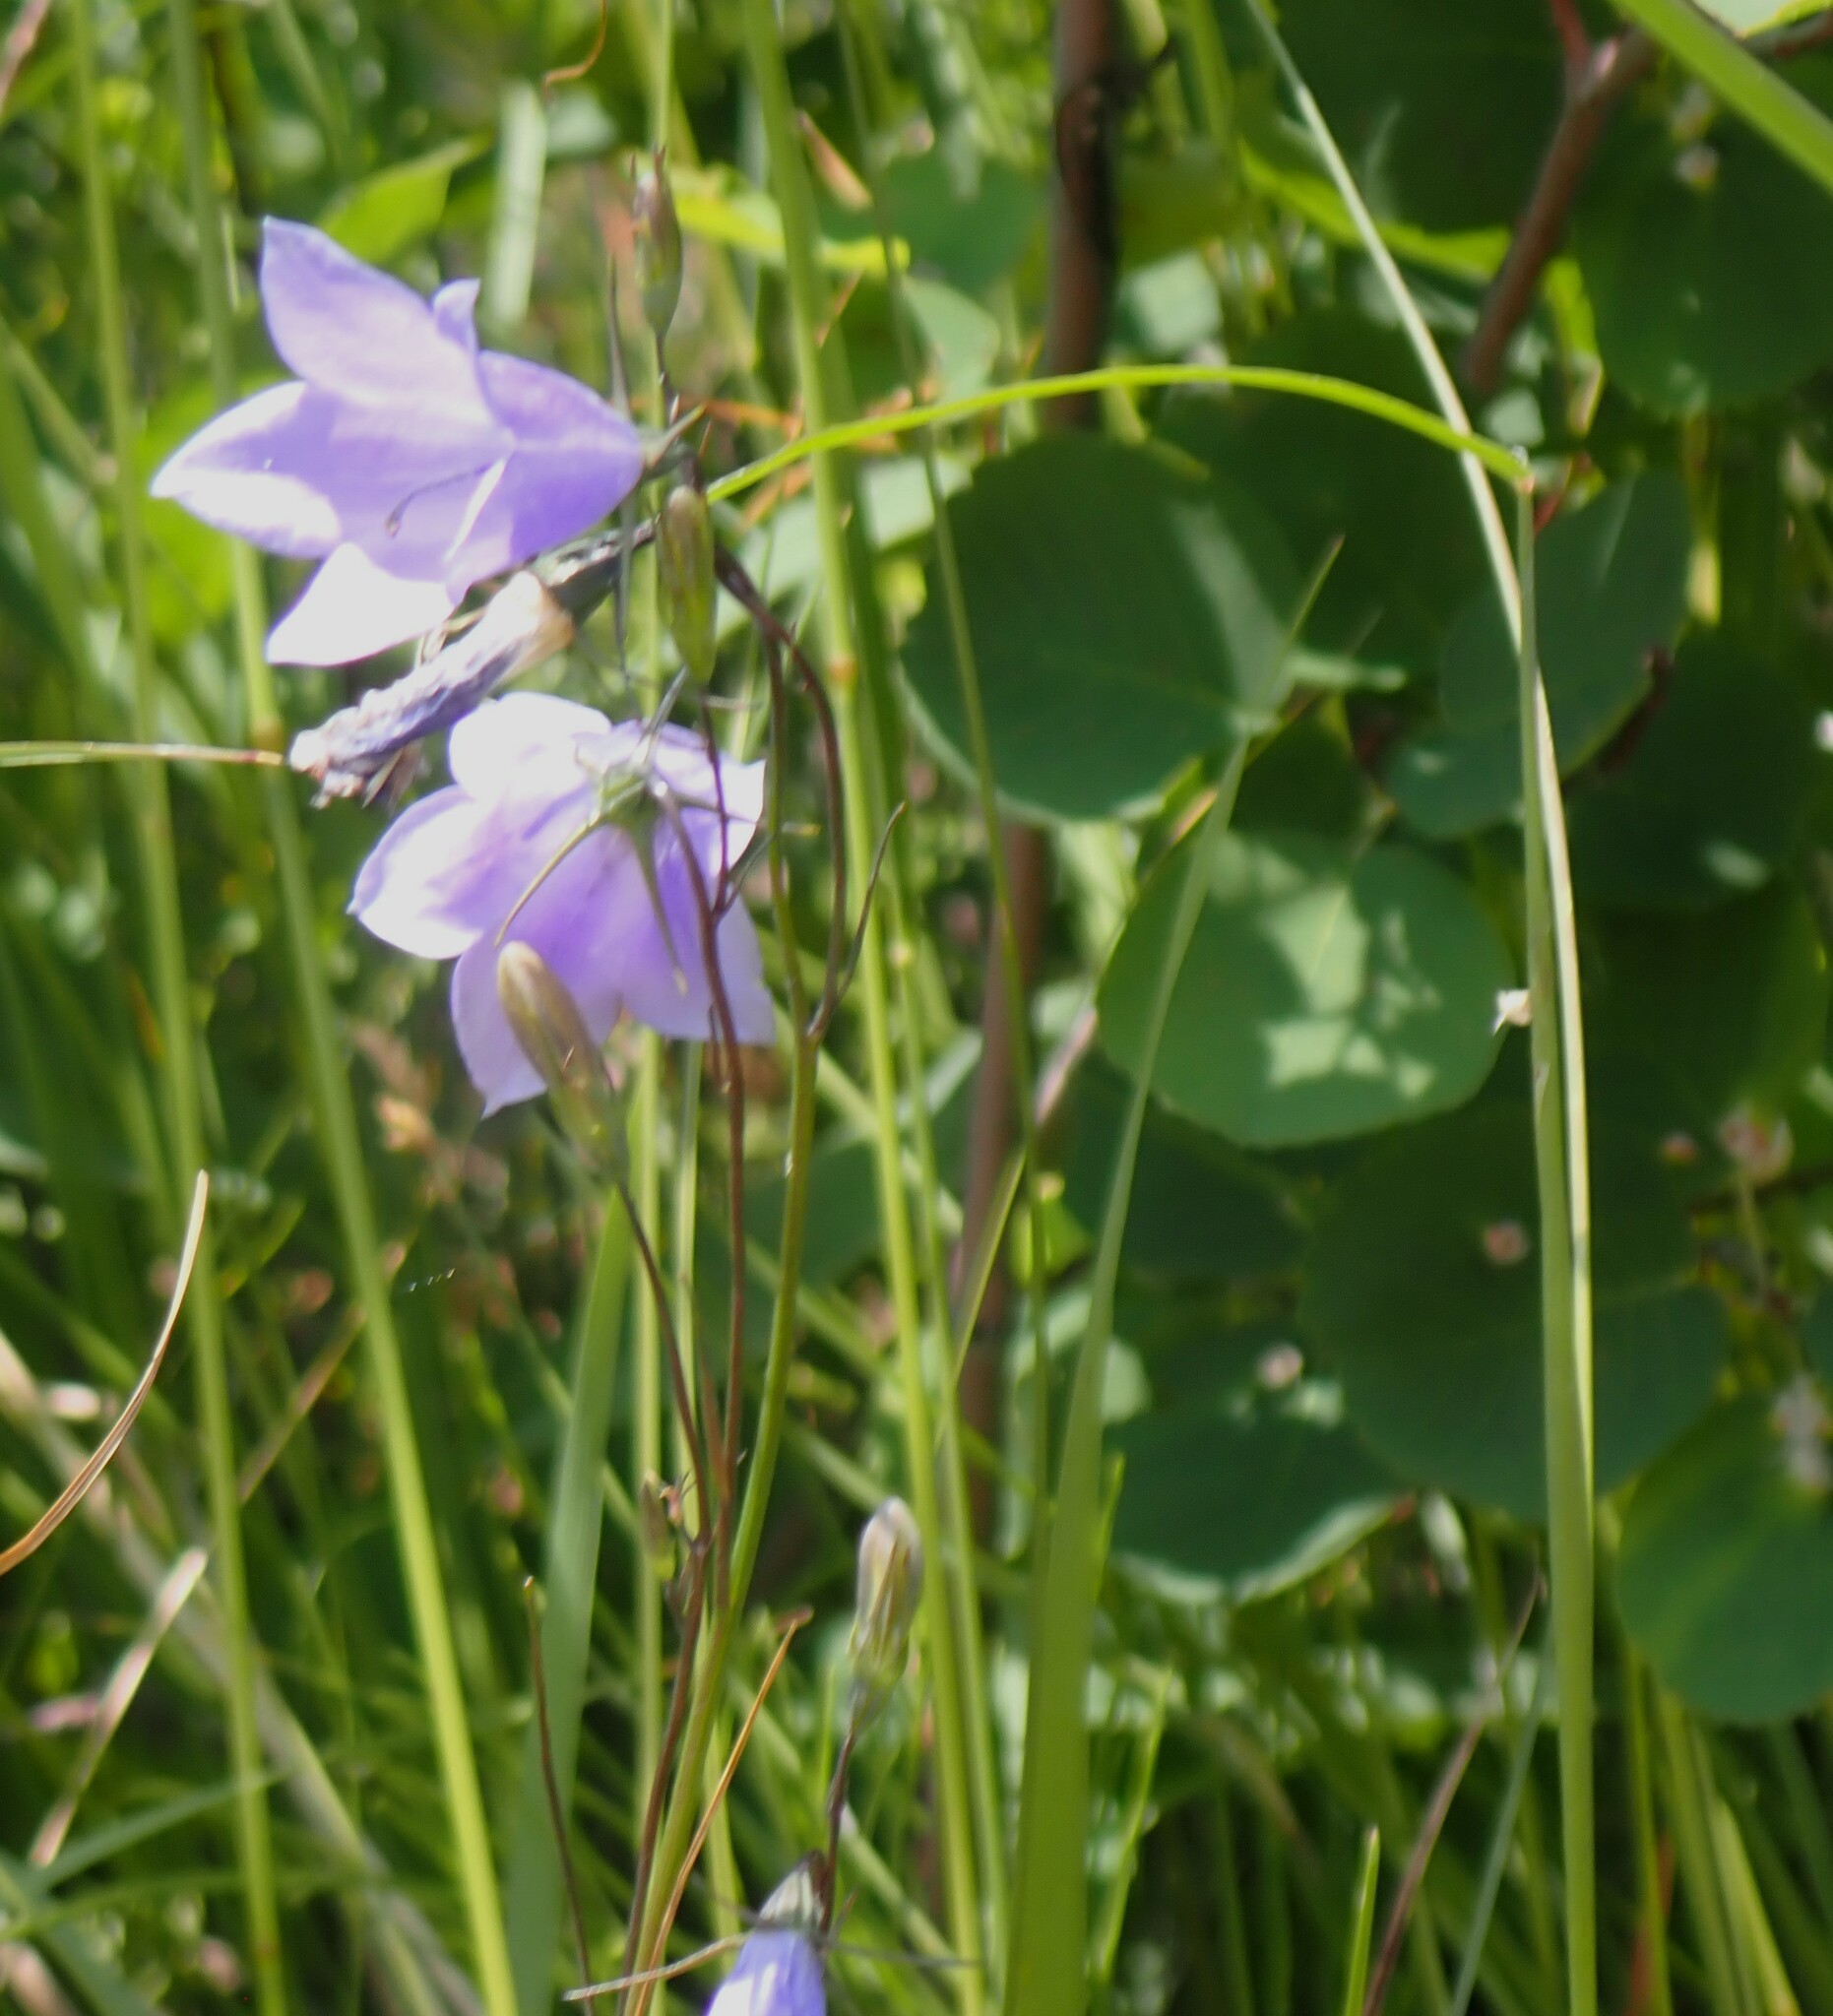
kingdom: Plantae
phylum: Tracheophyta
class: Magnoliopsida
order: Asterales
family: Campanulaceae
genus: Campanula
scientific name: Campanula alaskana
